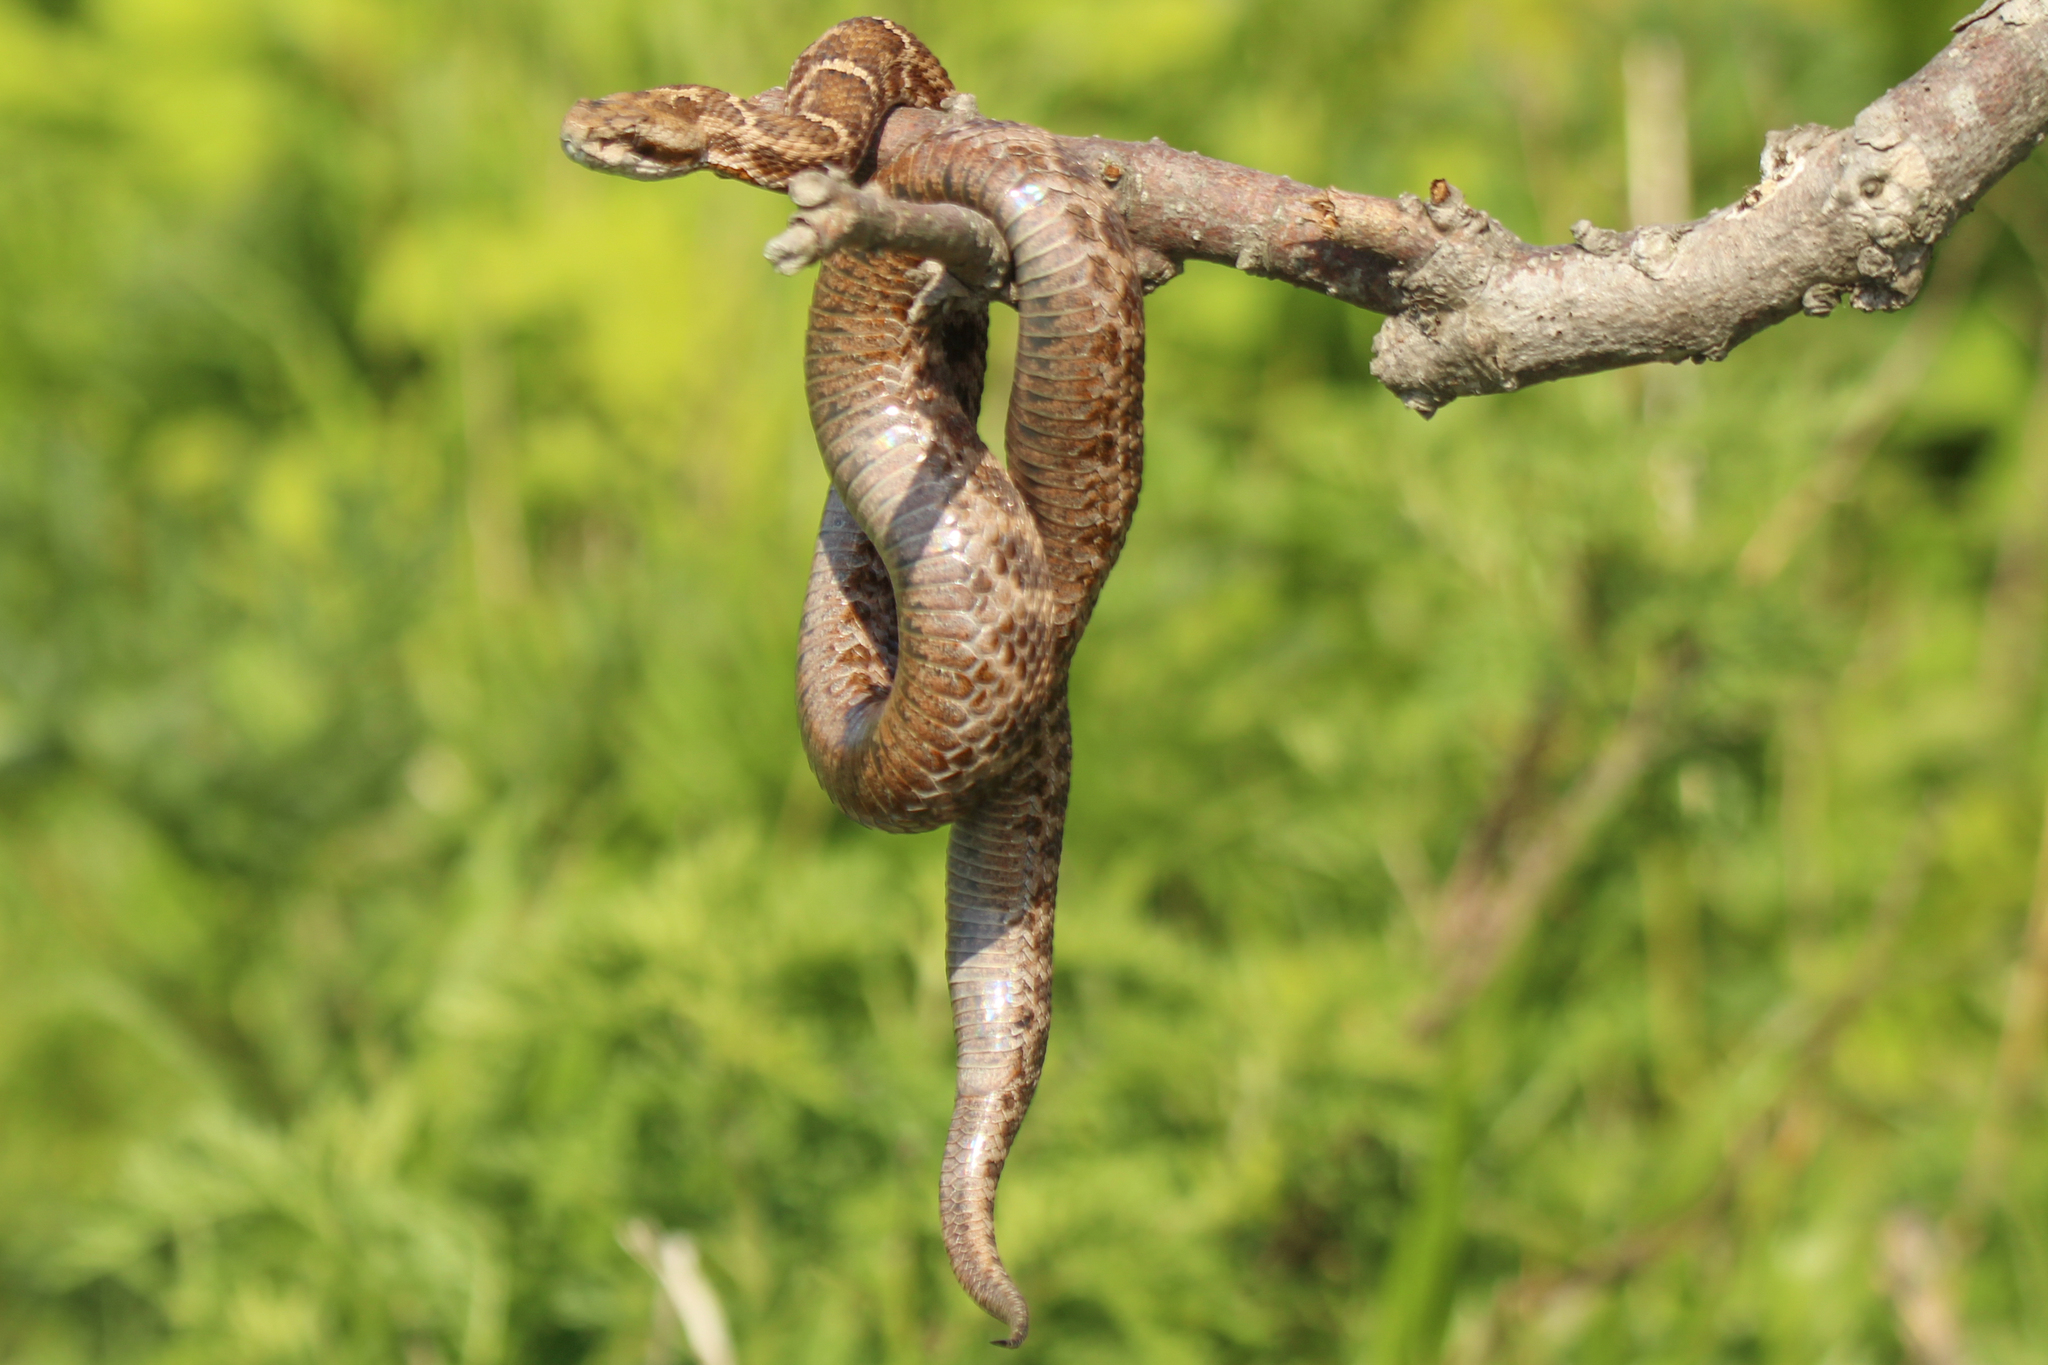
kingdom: Animalia
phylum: Chordata
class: Squamata
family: Viperidae
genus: Gloydius
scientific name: Gloydius intermedius
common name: Central asian pit viper
